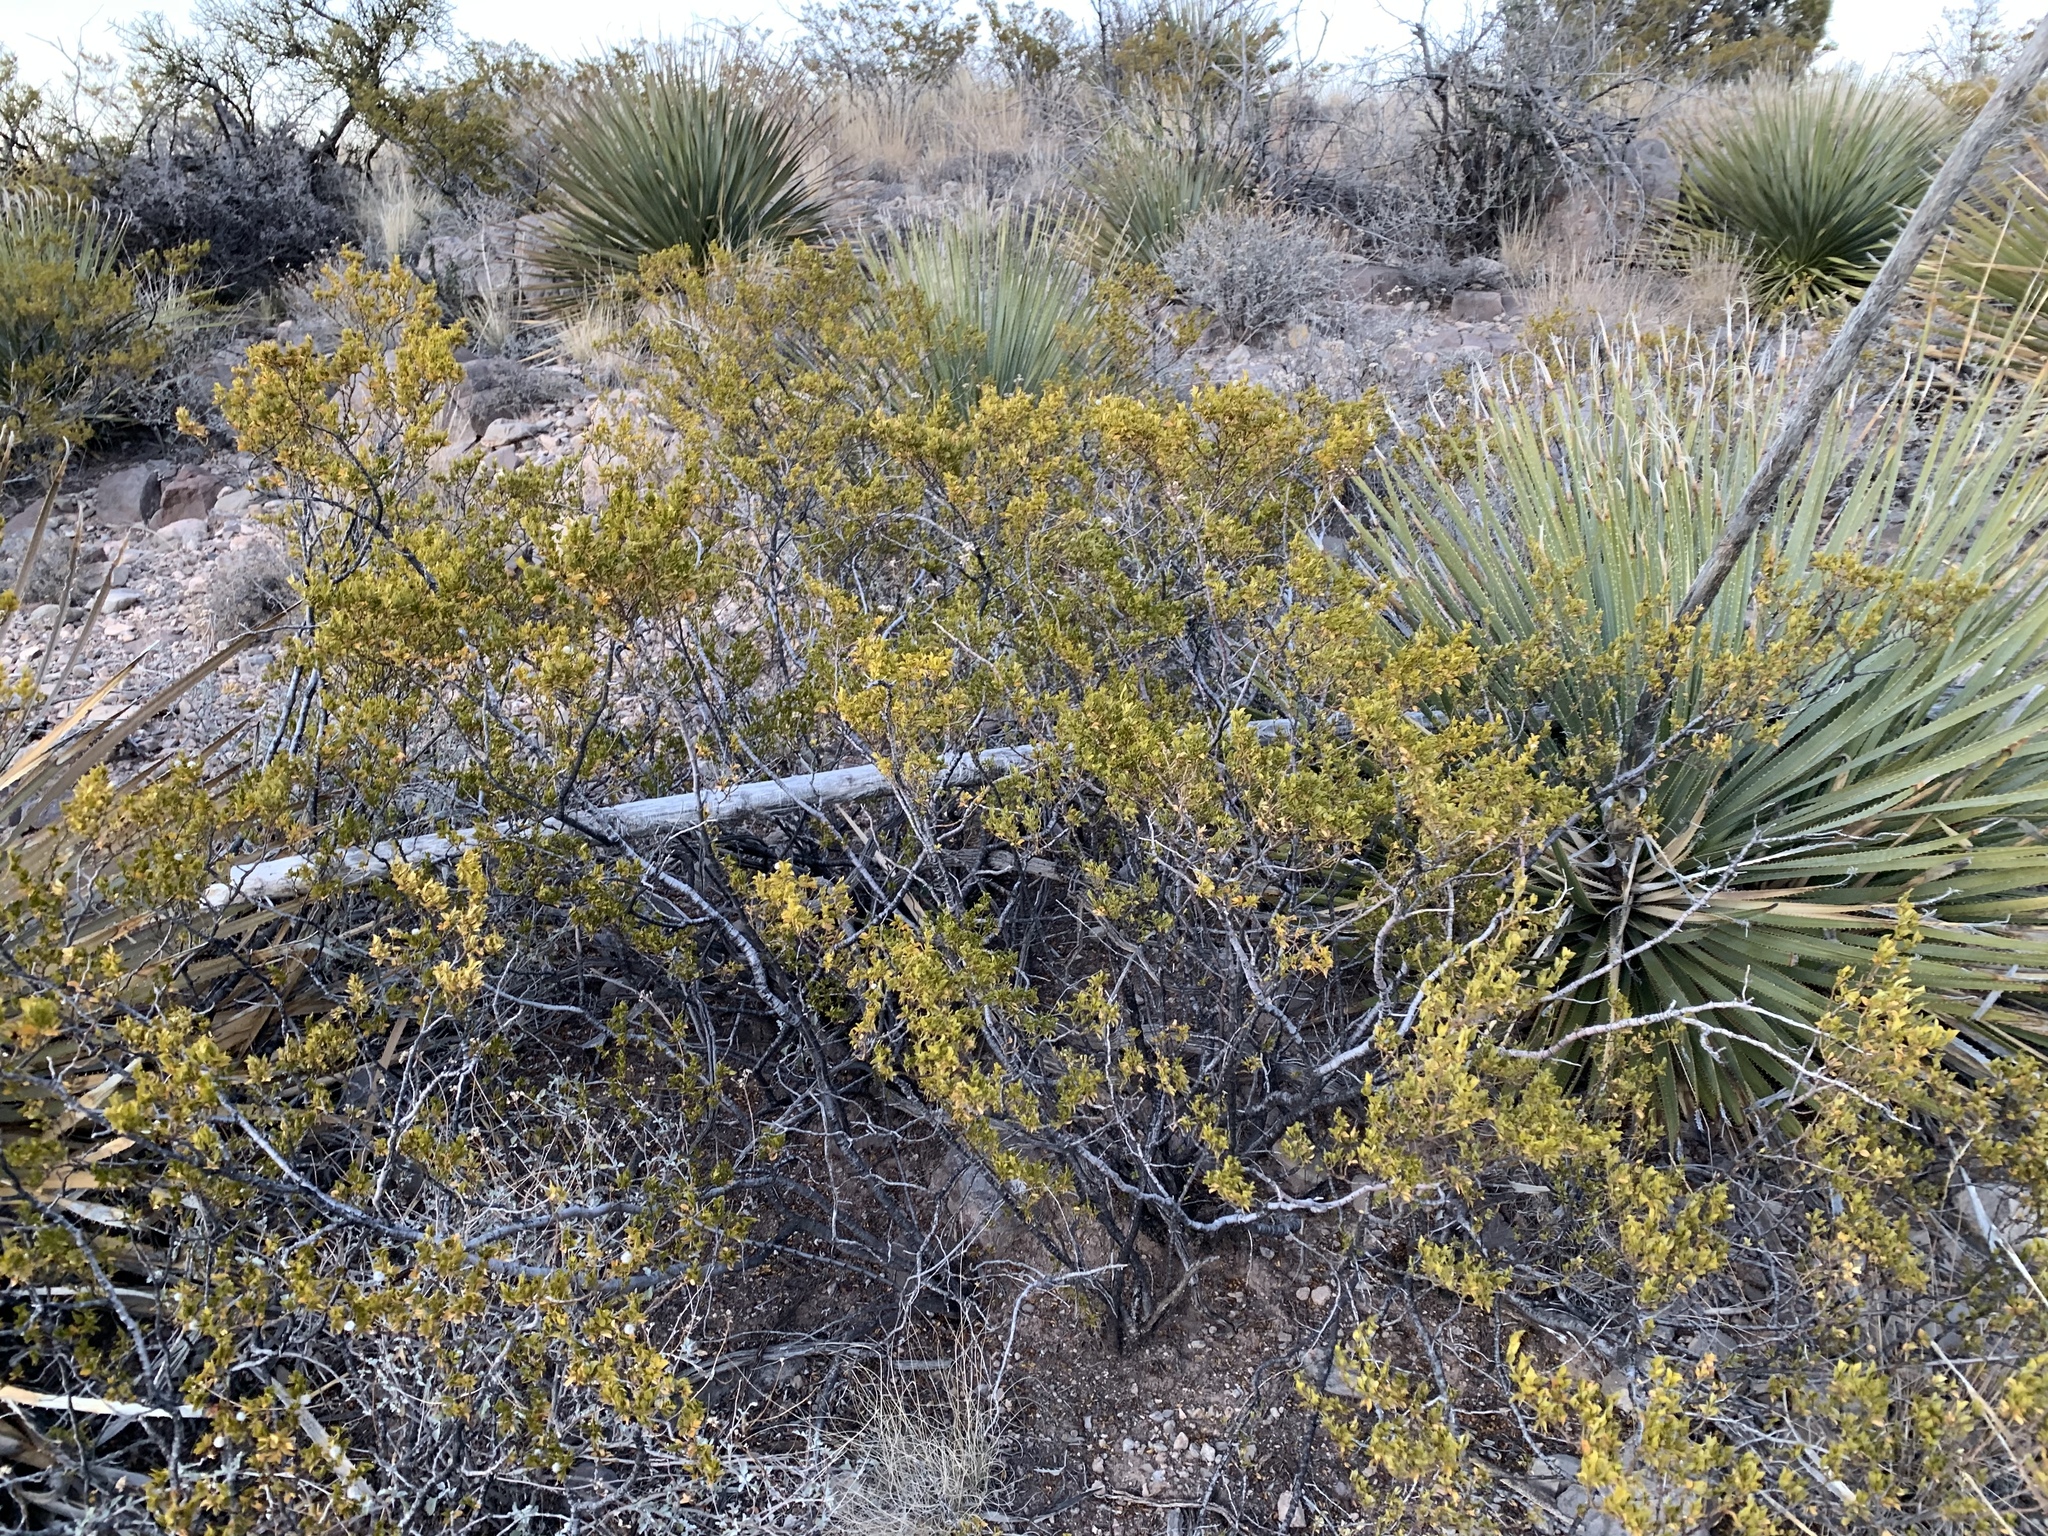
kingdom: Plantae
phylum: Tracheophyta
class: Magnoliopsida
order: Zygophyllales
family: Zygophyllaceae
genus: Larrea
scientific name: Larrea tridentata
